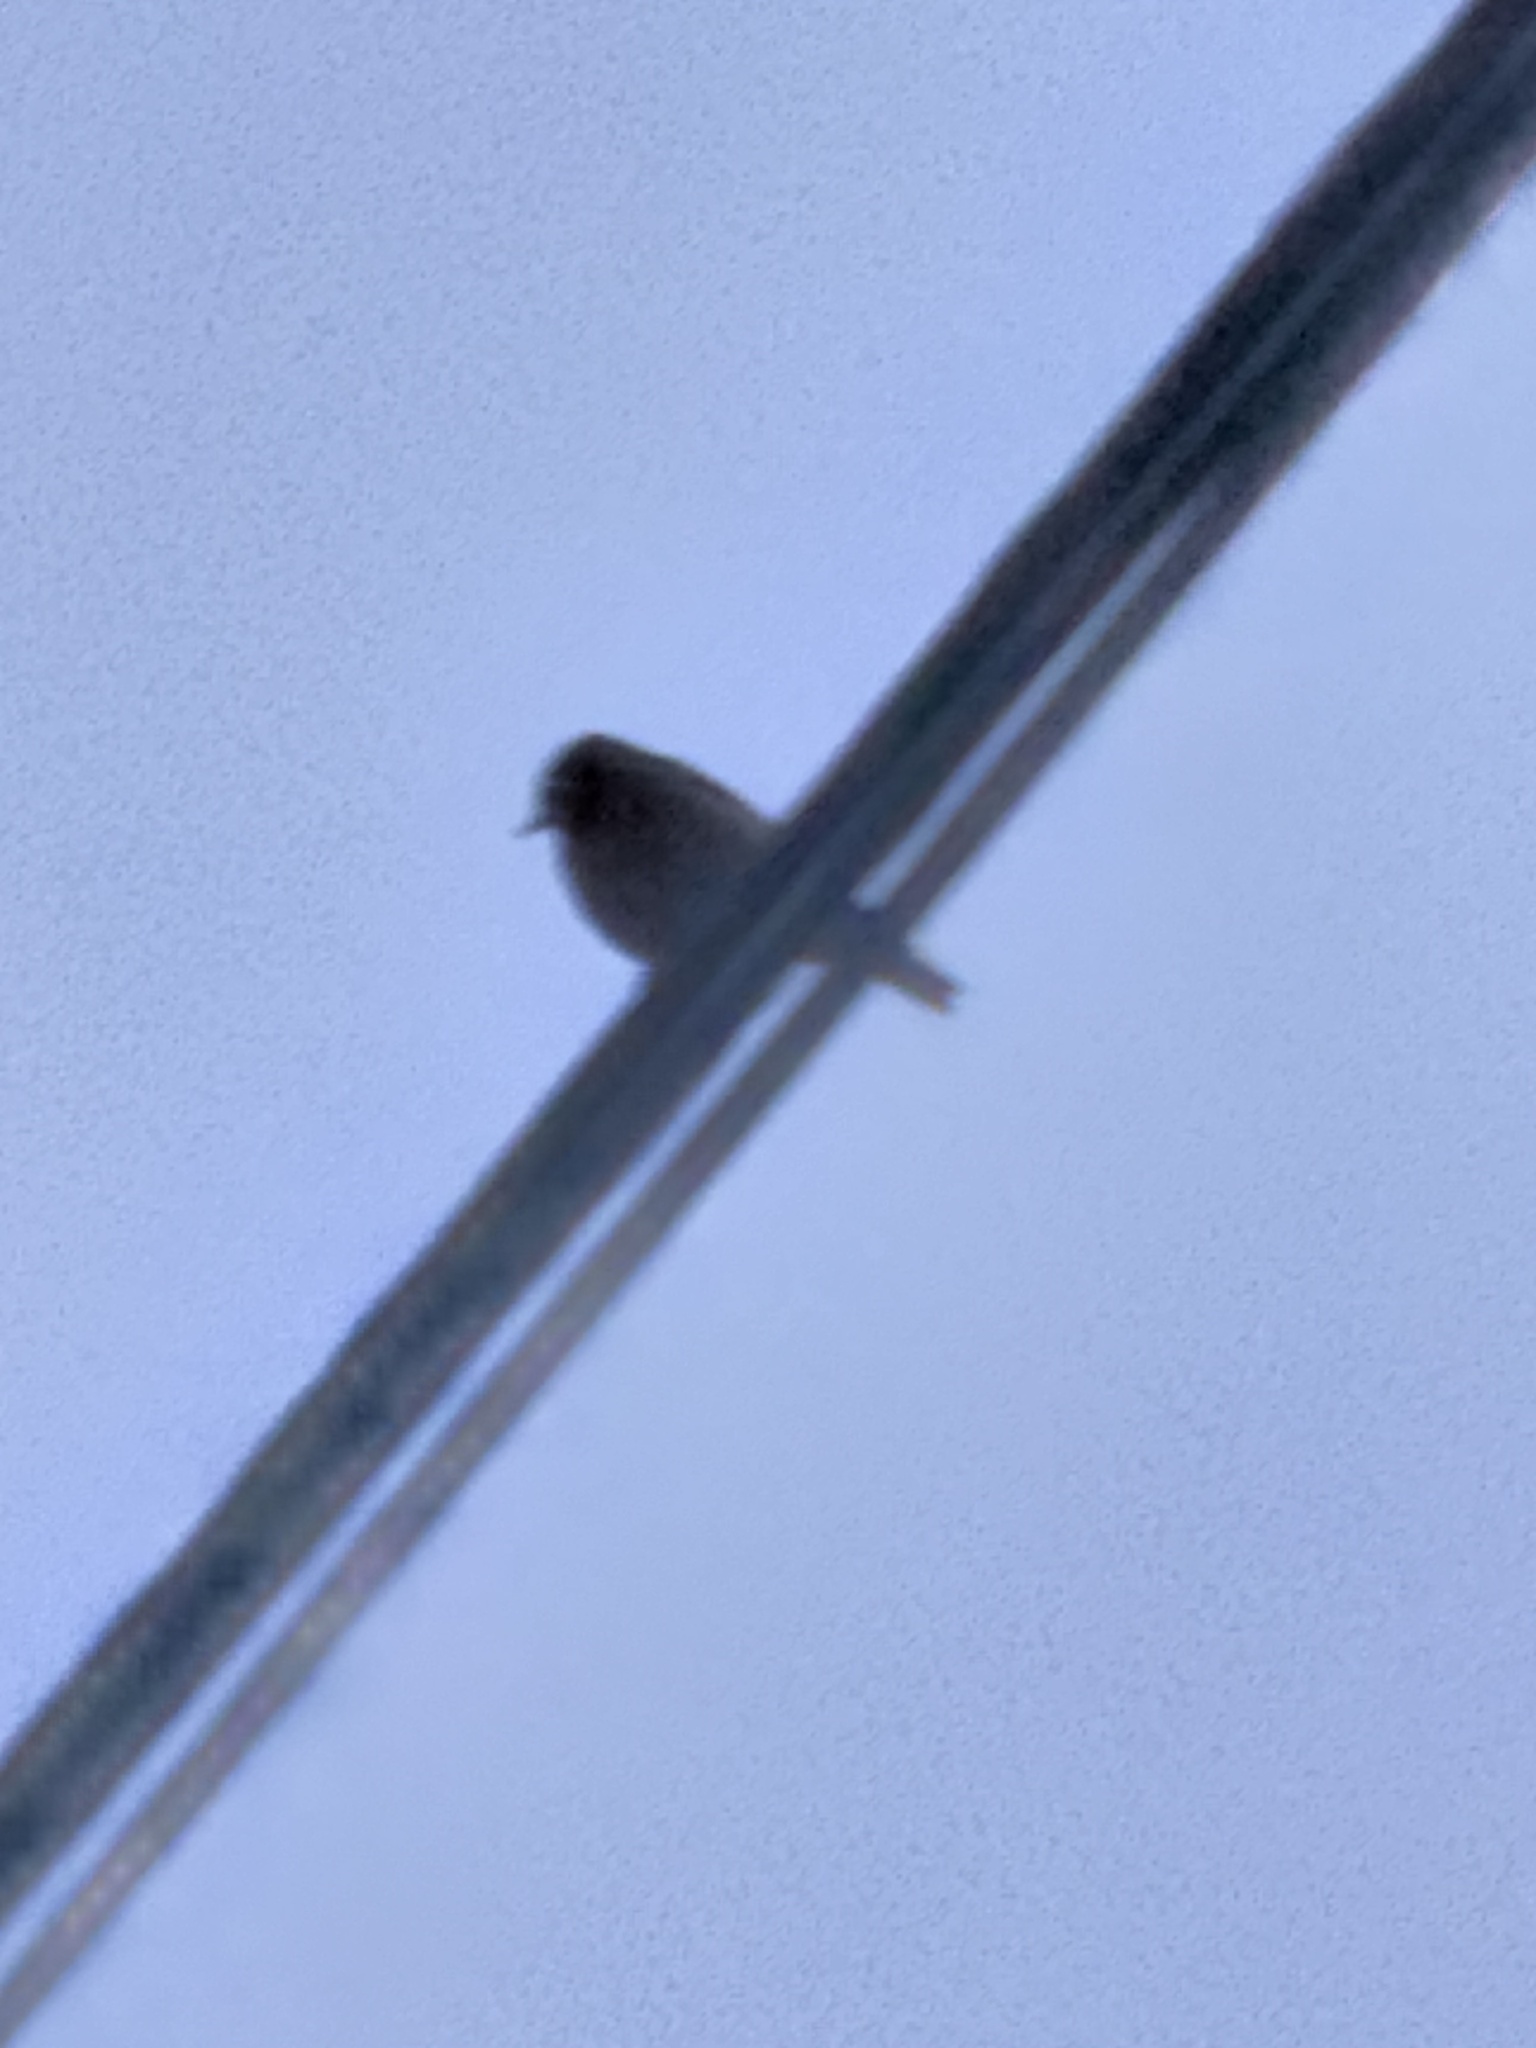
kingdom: Animalia
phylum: Chordata
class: Aves
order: Passeriformes
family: Turdidae
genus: Sialia
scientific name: Sialia mexicana
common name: Western bluebird
